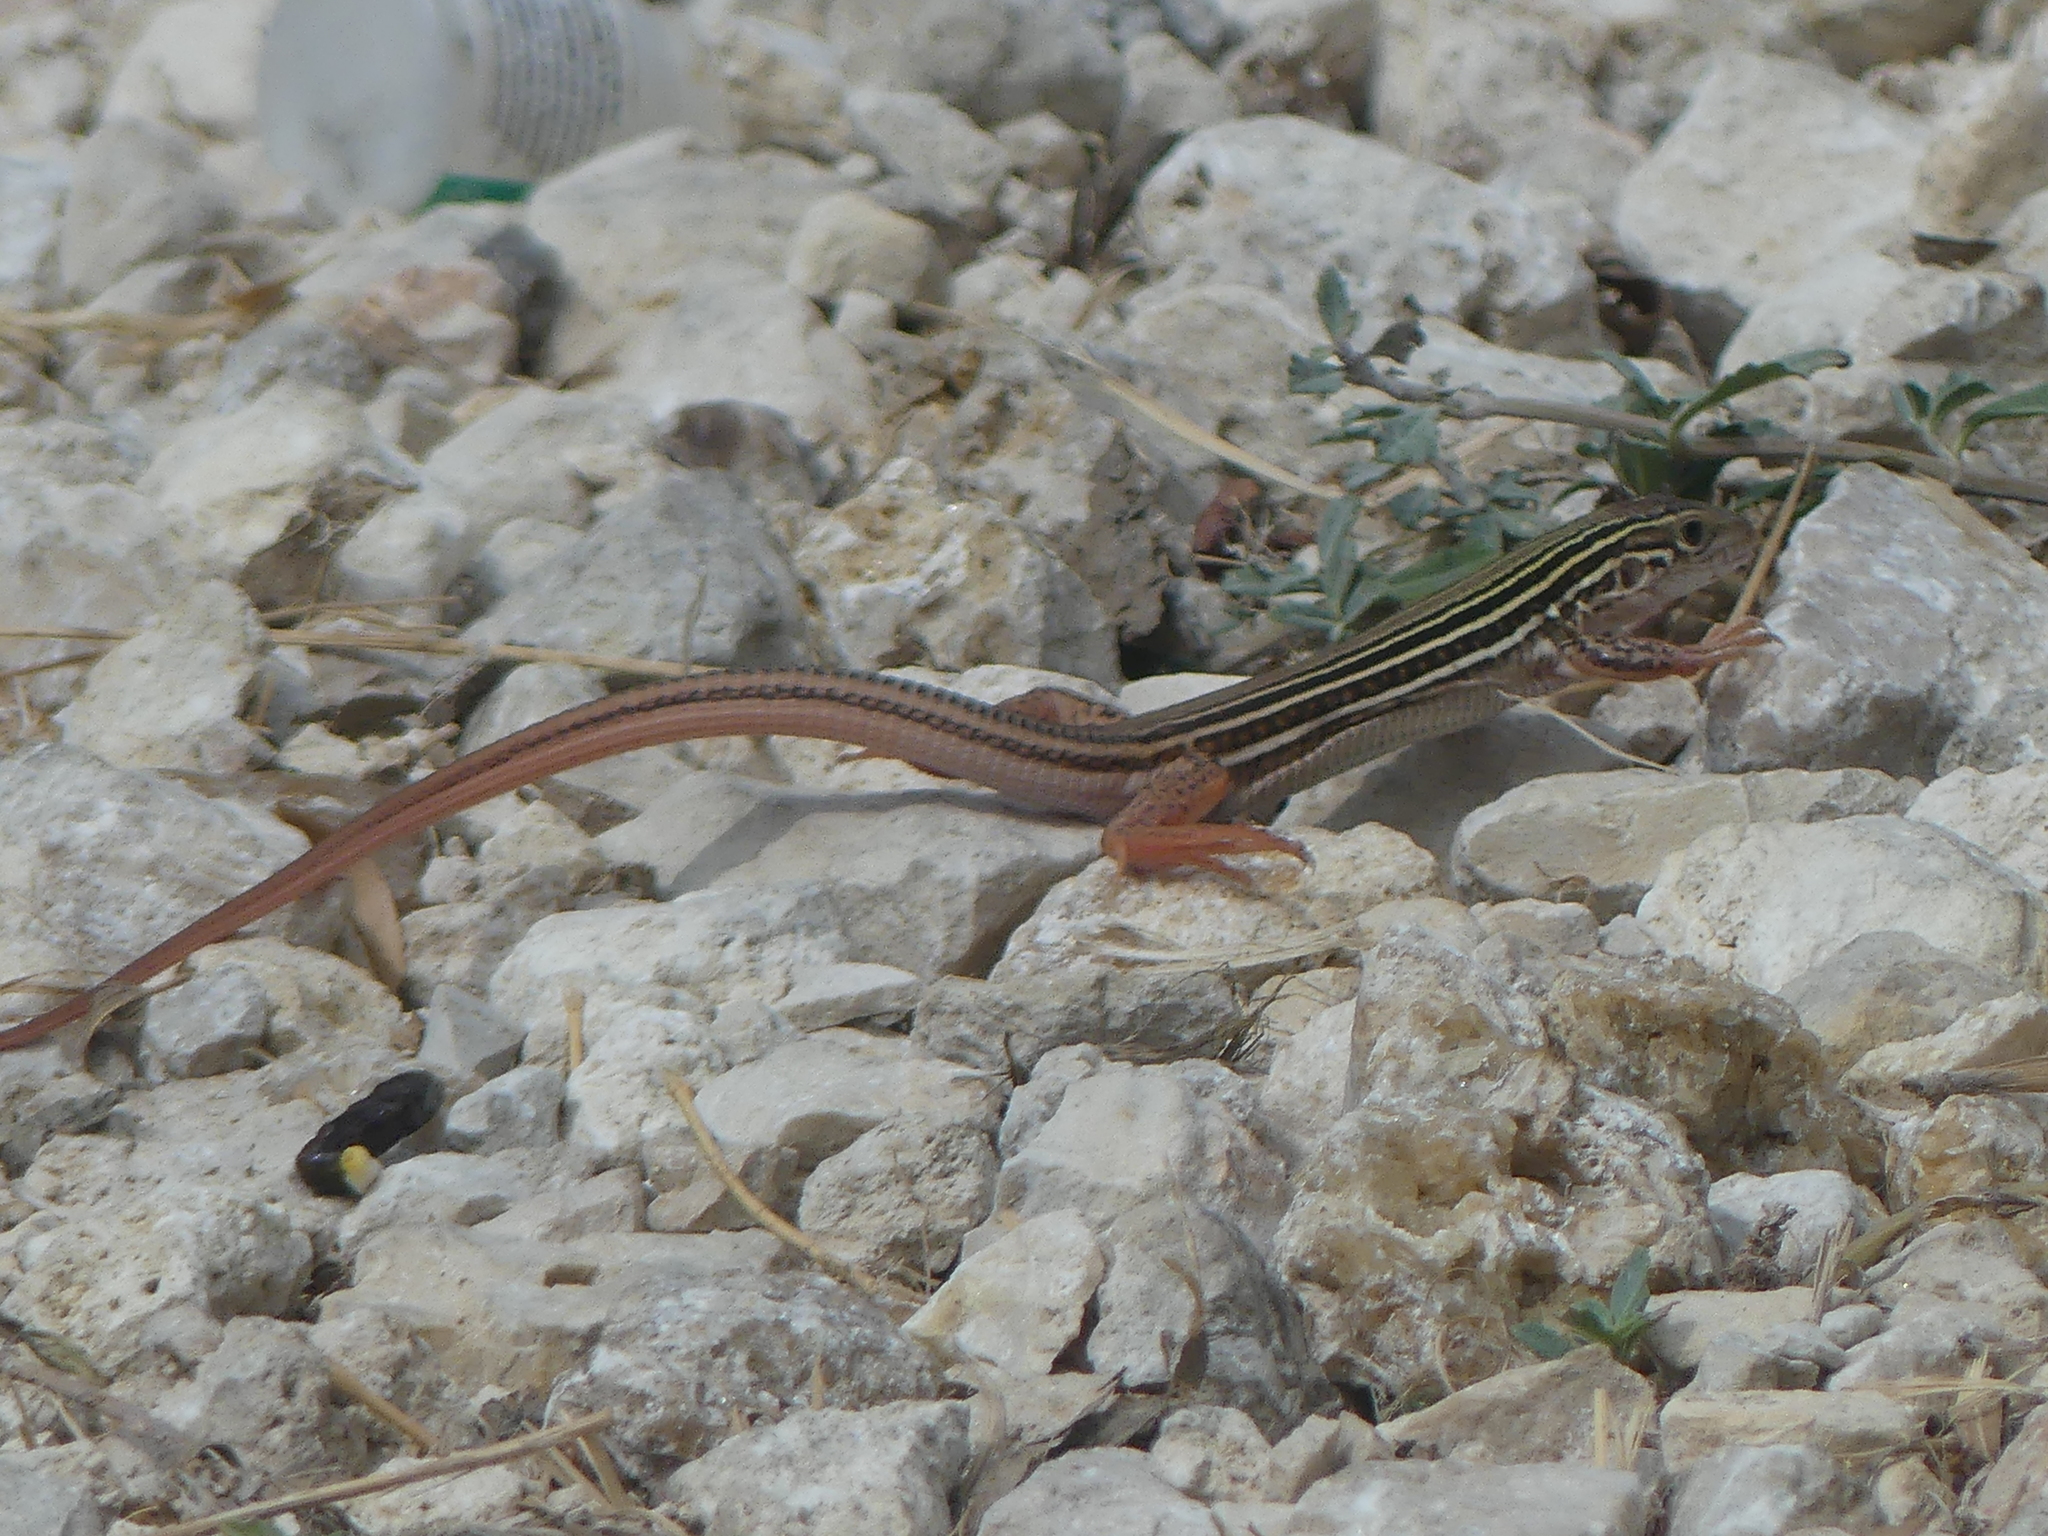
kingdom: Animalia
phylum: Chordata
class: Squamata
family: Teiidae
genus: Aspidoscelis
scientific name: Aspidoscelis gularis
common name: Eastern spotted whiptail
